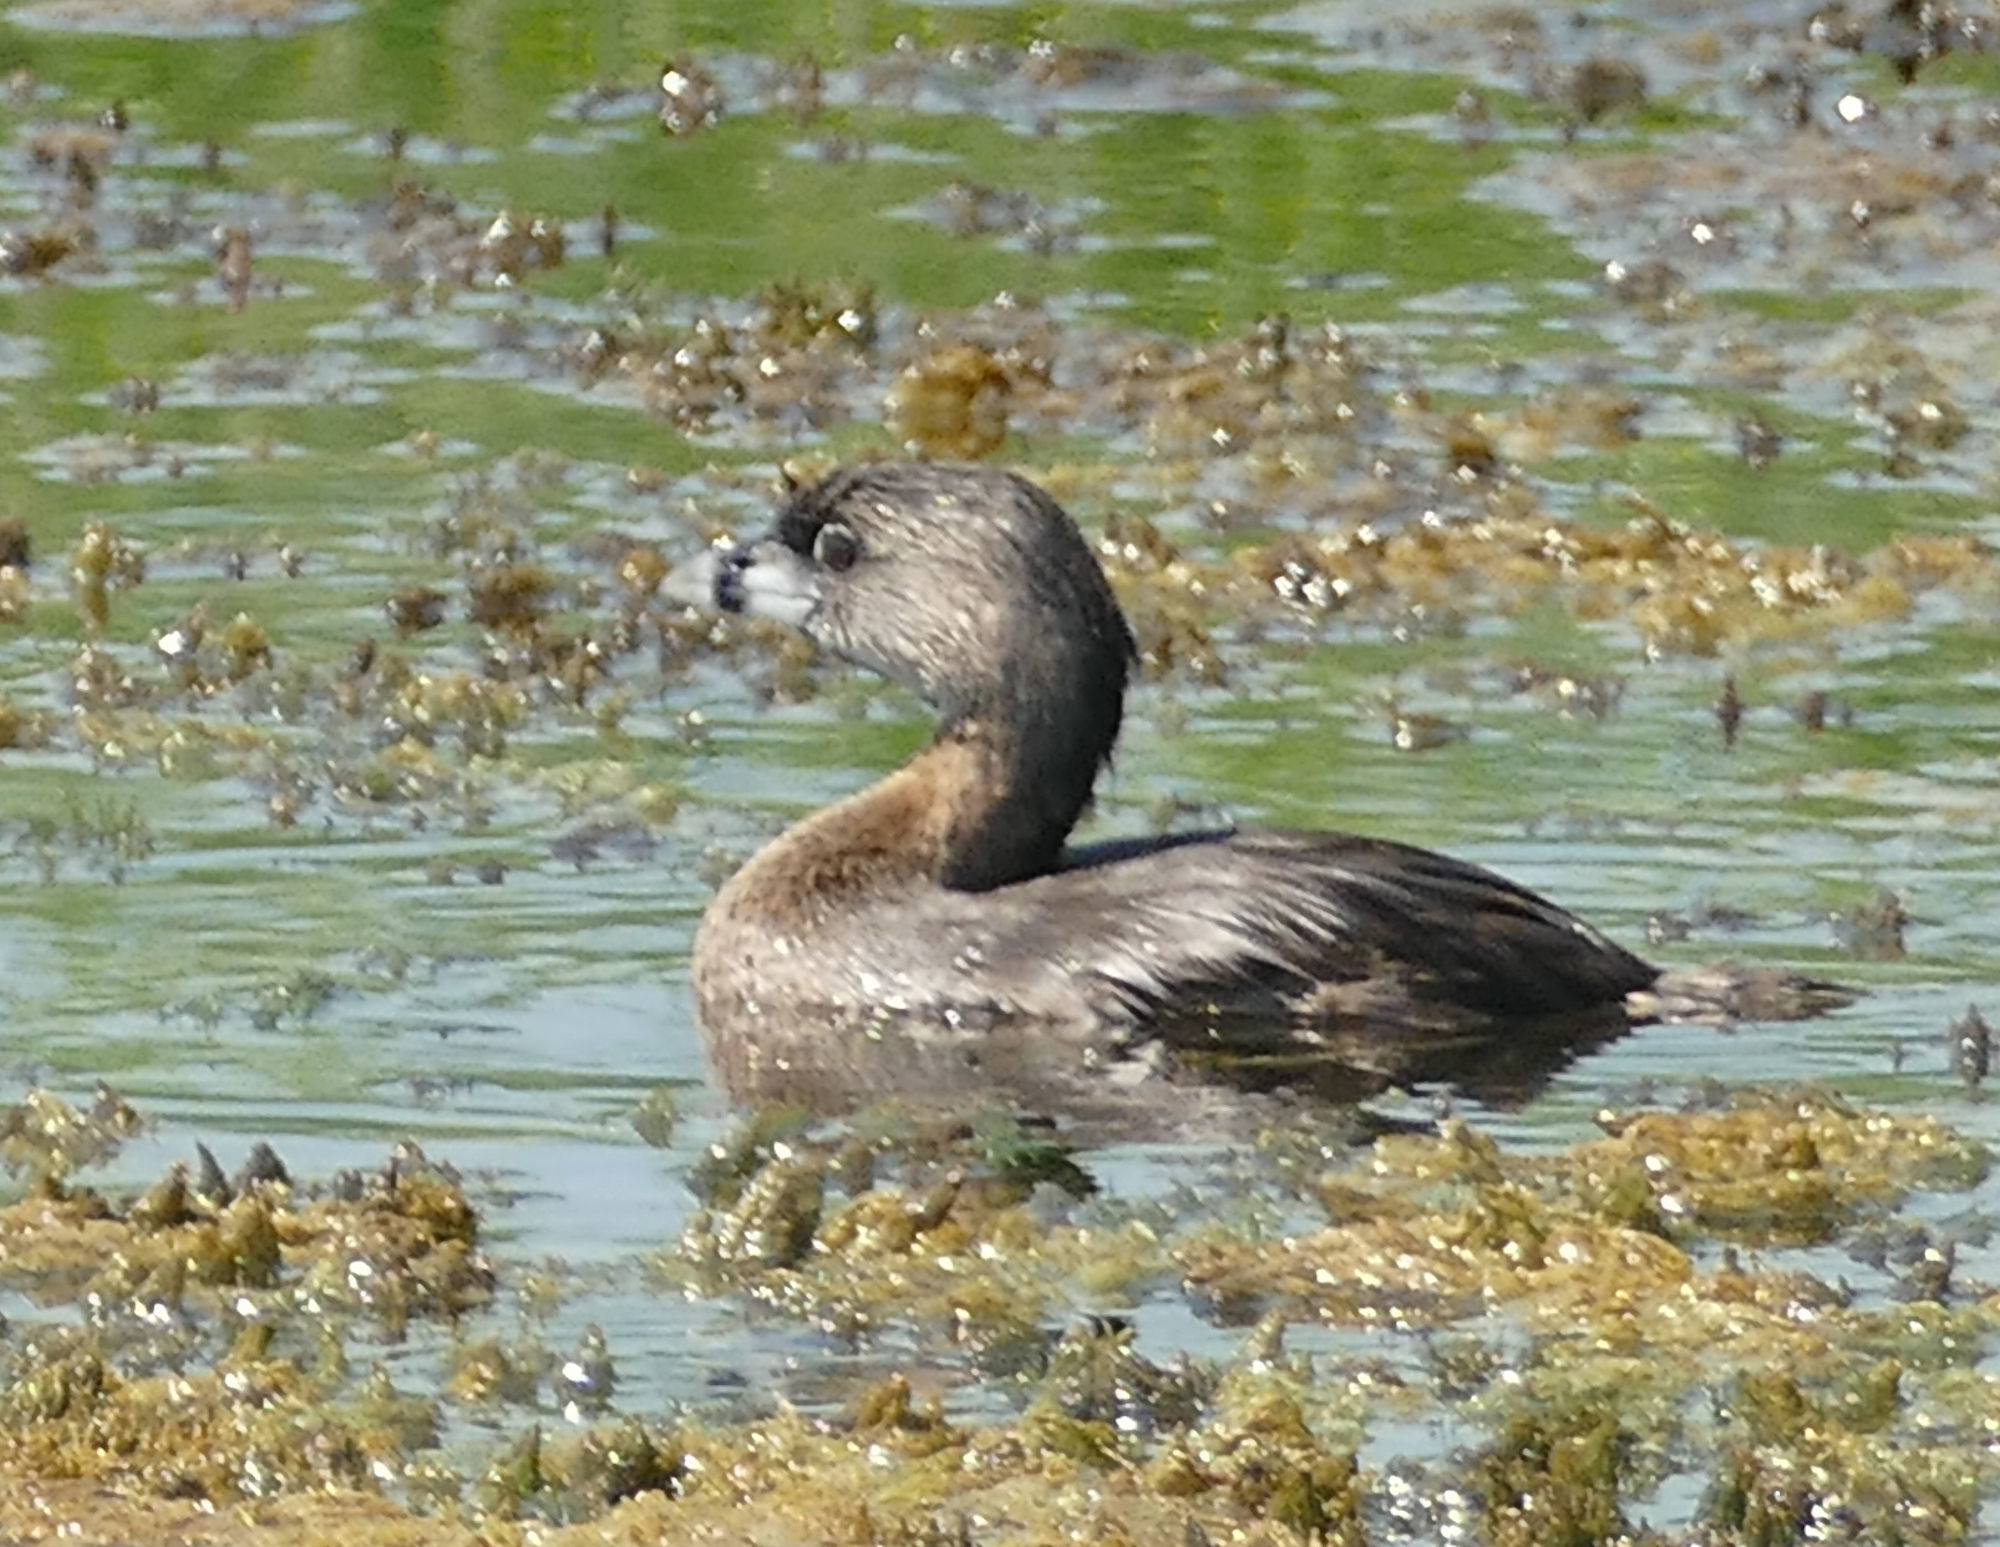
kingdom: Animalia
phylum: Chordata
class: Aves
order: Podicipediformes
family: Podicipedidae
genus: Podilymbus
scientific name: Podilymbus podiceps
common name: Pied-billed grebe
